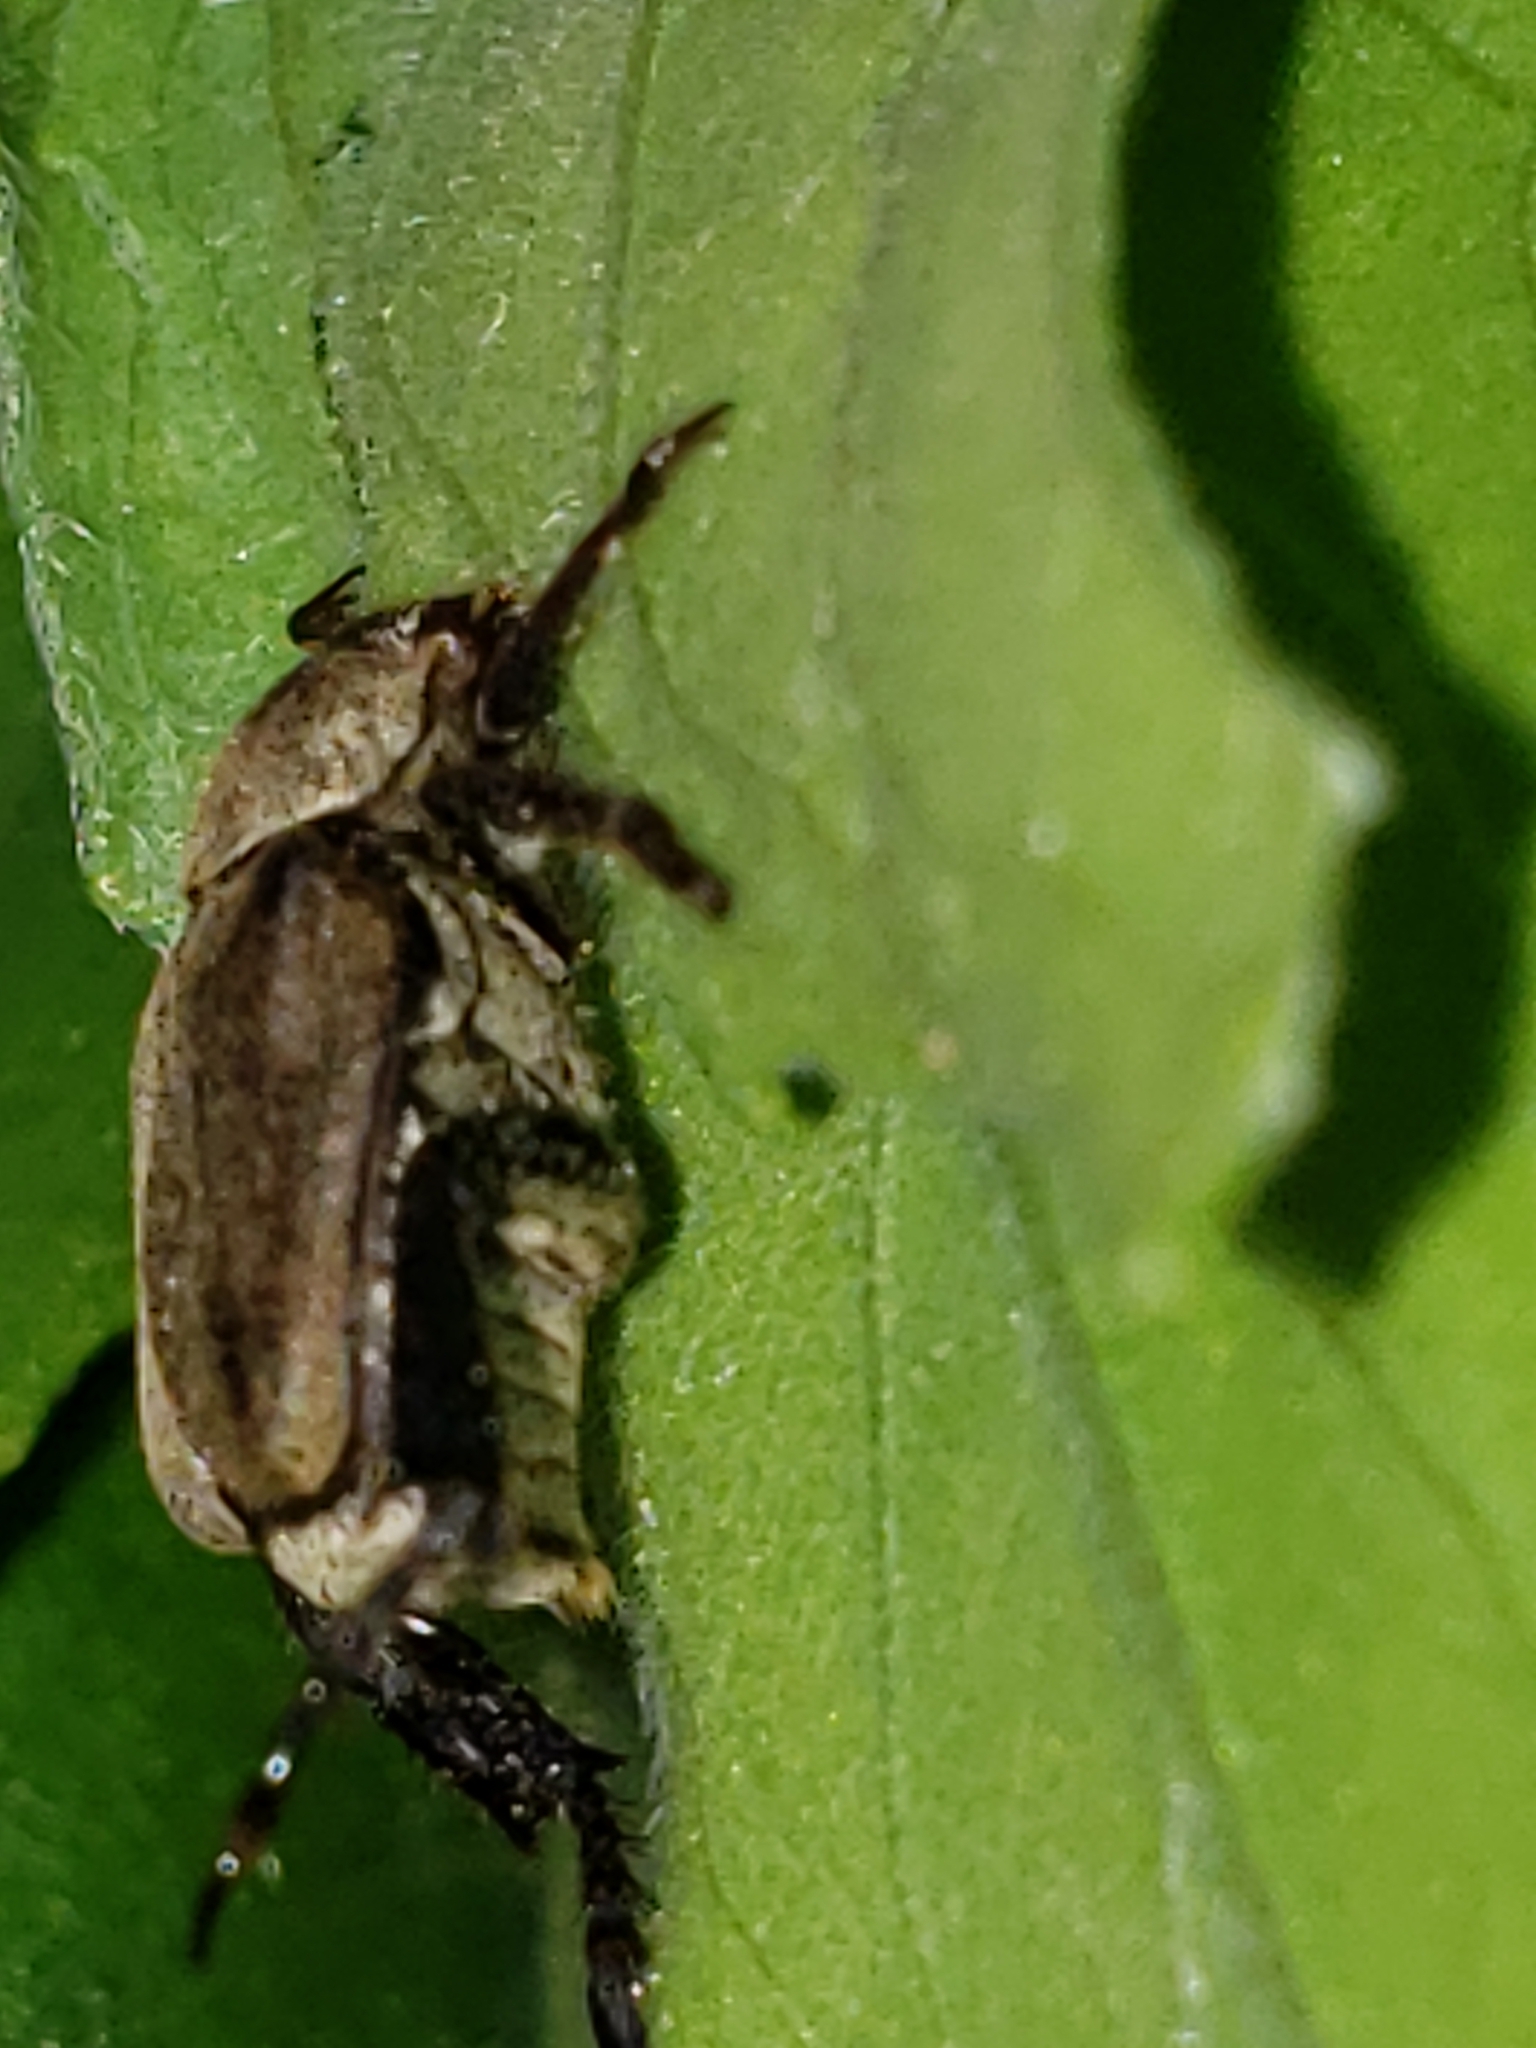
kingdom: Animalia
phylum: Arthropoda
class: Insecta
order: Coleoptera
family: Scarabaeidae
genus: Hoplia
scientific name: Hoplia trivialis
